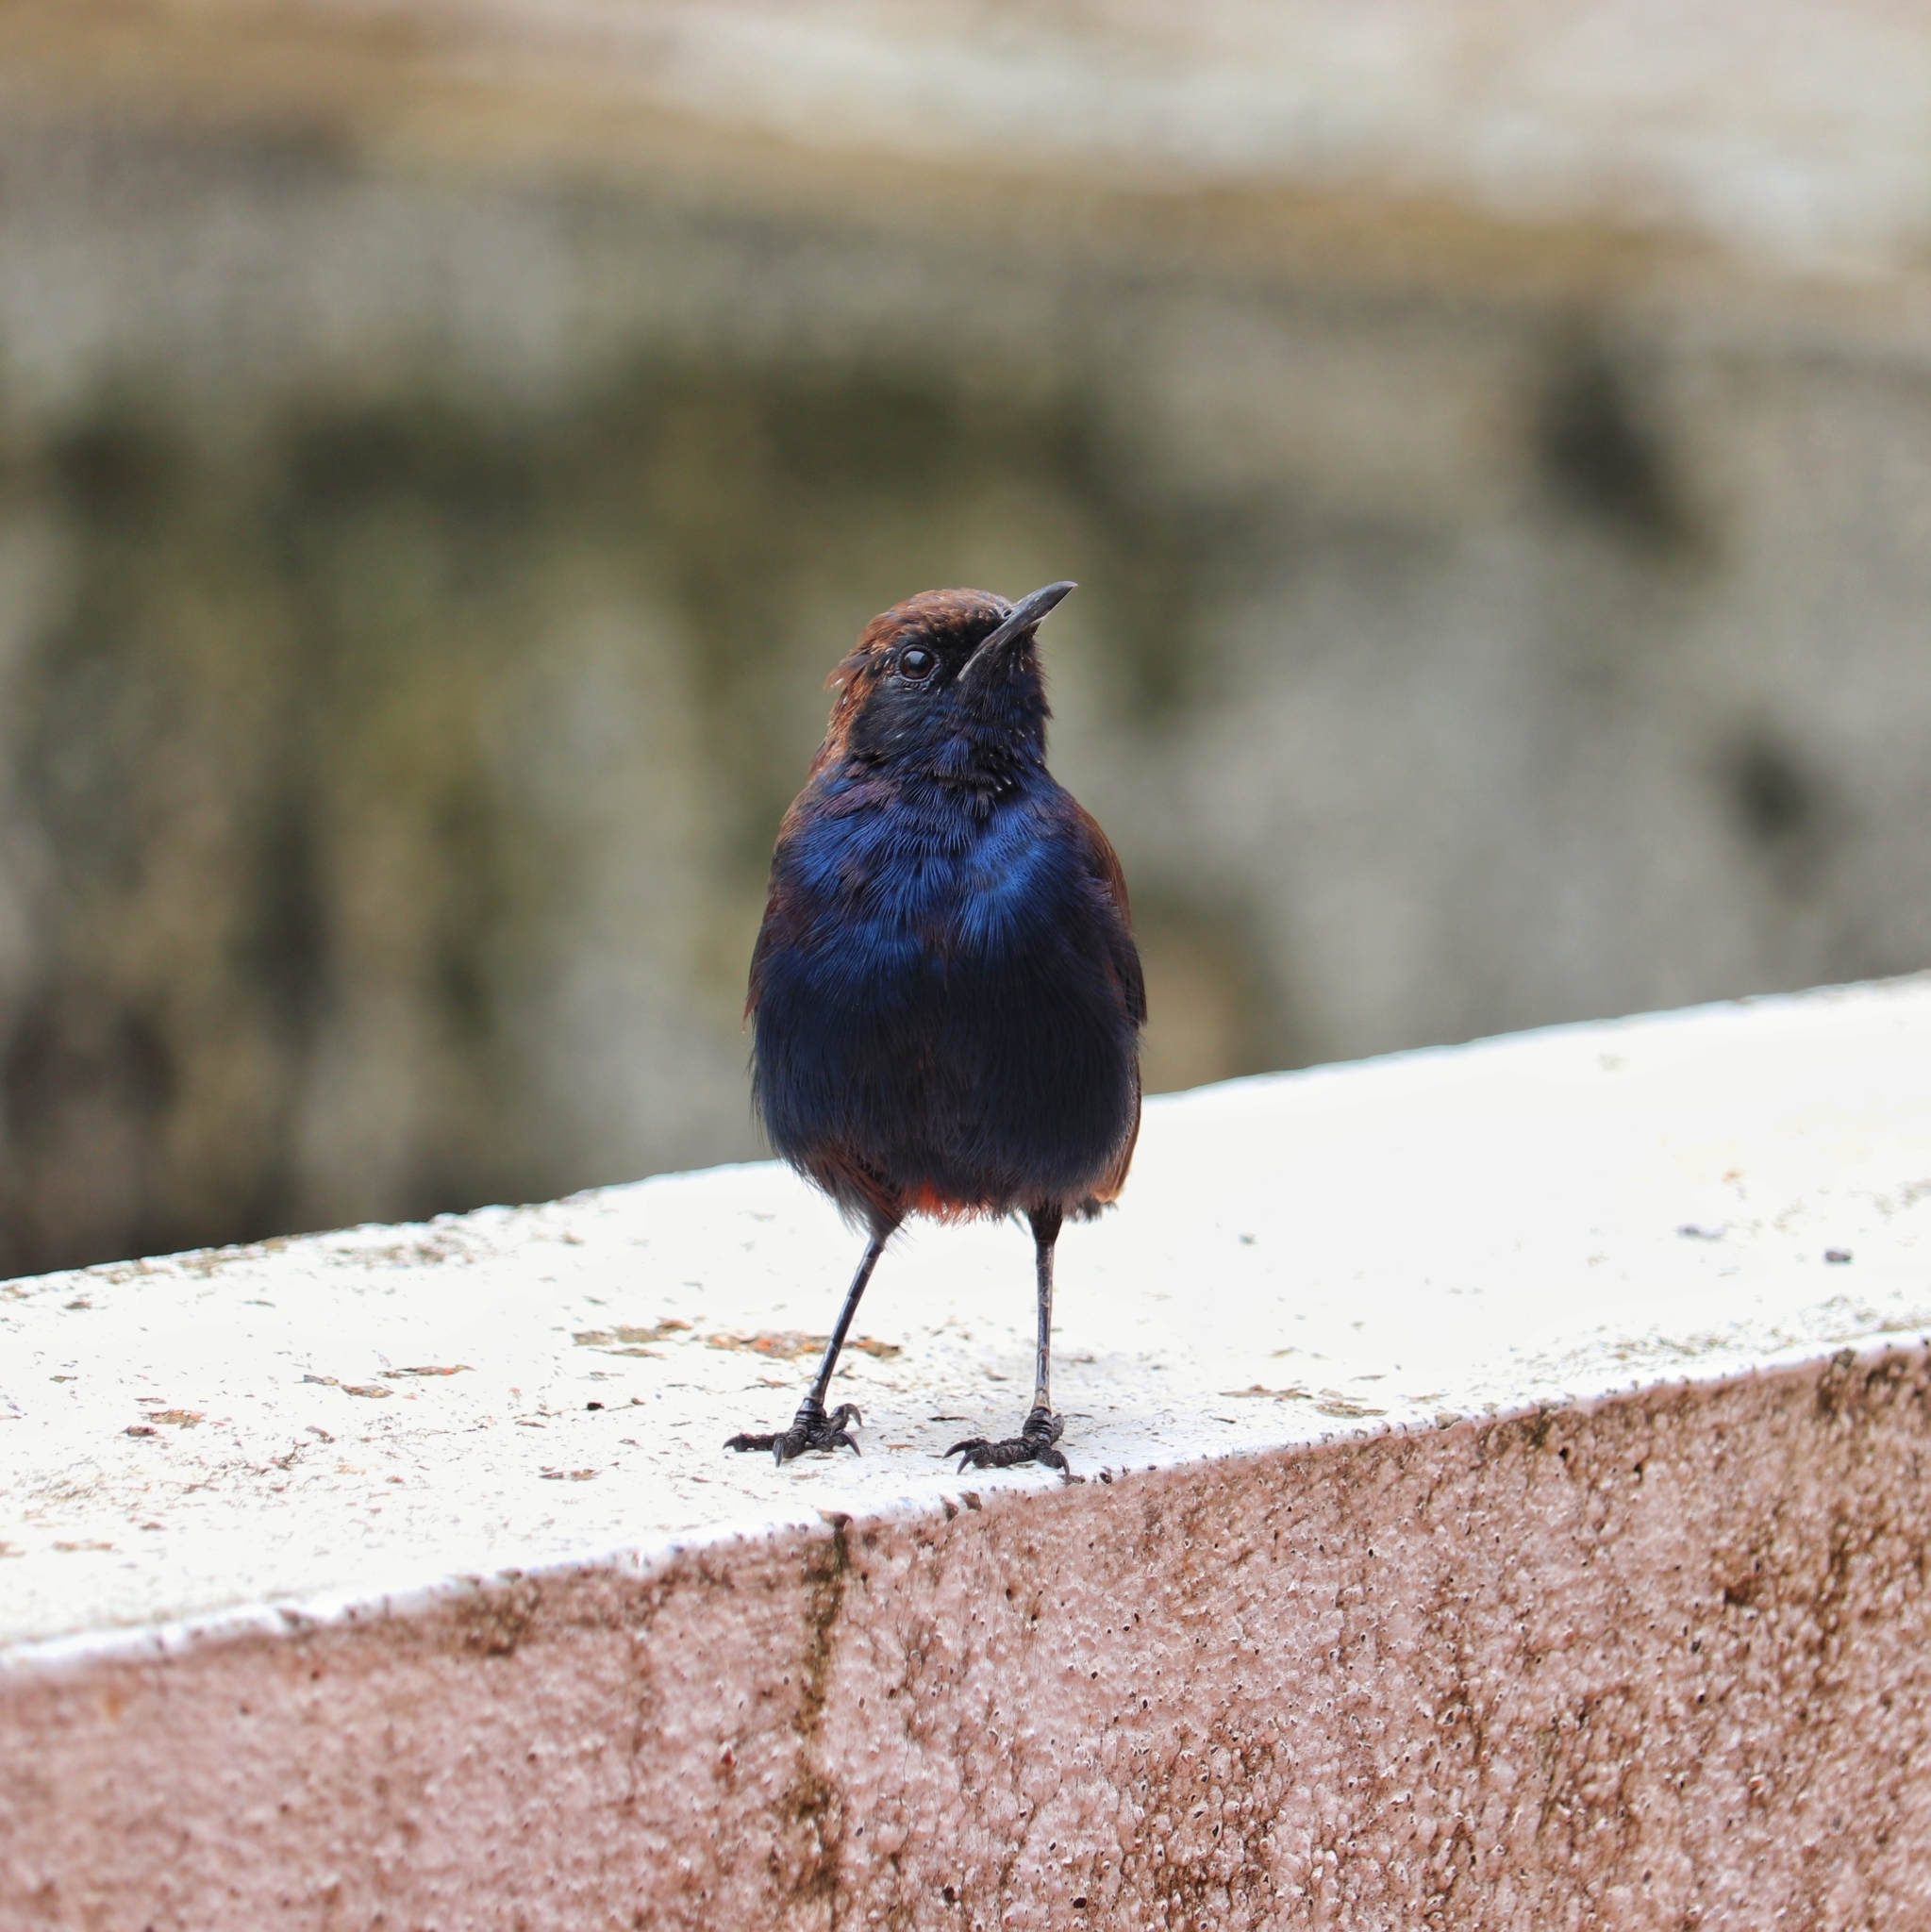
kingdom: Animalia
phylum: Chordata
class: Aves
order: Passeriformes
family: Muscicapidae
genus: Saxicoloides
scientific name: Saxicoloides fulicatus
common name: Indian robin
